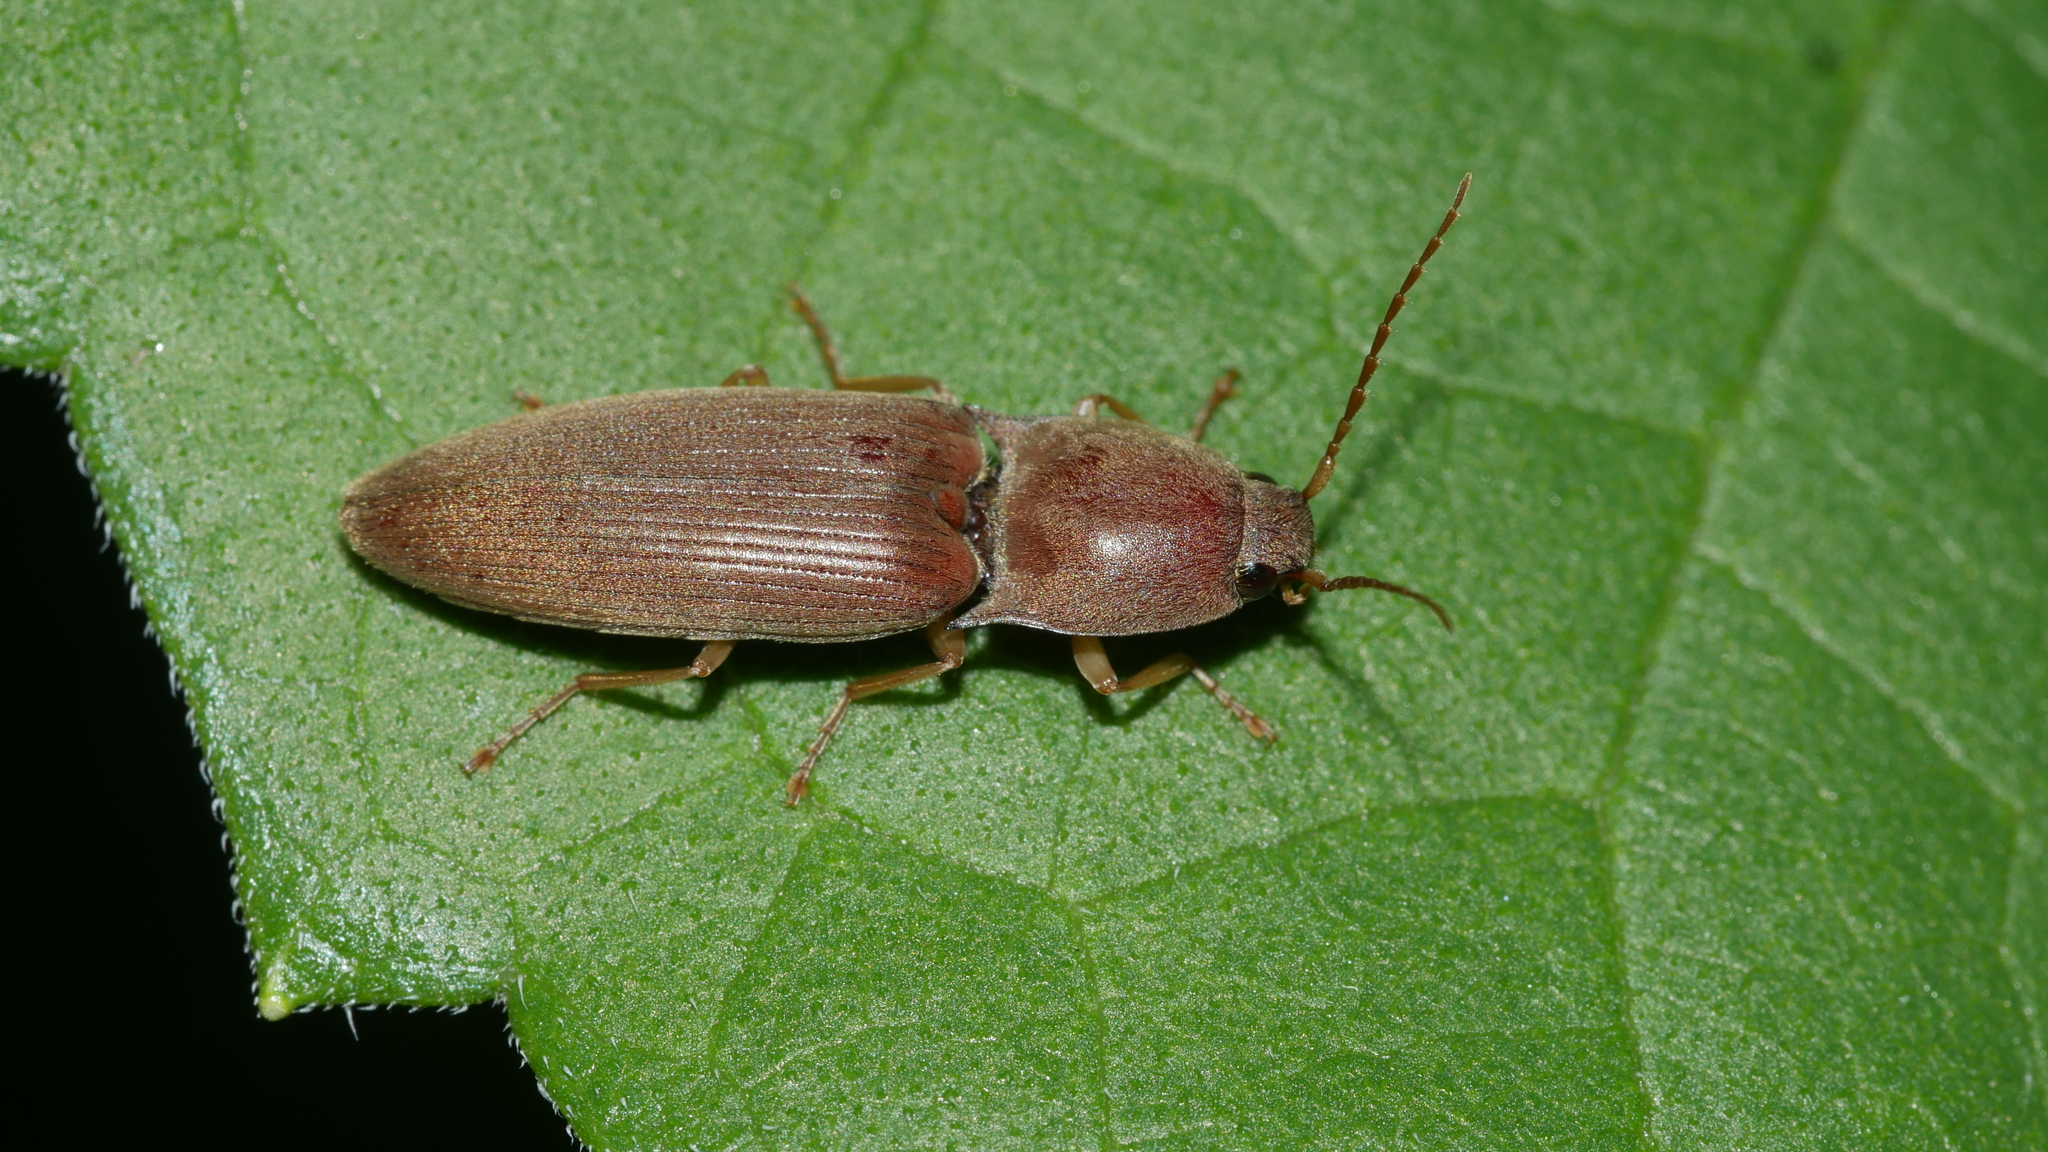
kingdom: Animalia
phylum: Arthropoda
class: Insecta
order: Coleoptera
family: Elateridae
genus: Monocrepidius
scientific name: Monocrepidius lividus
